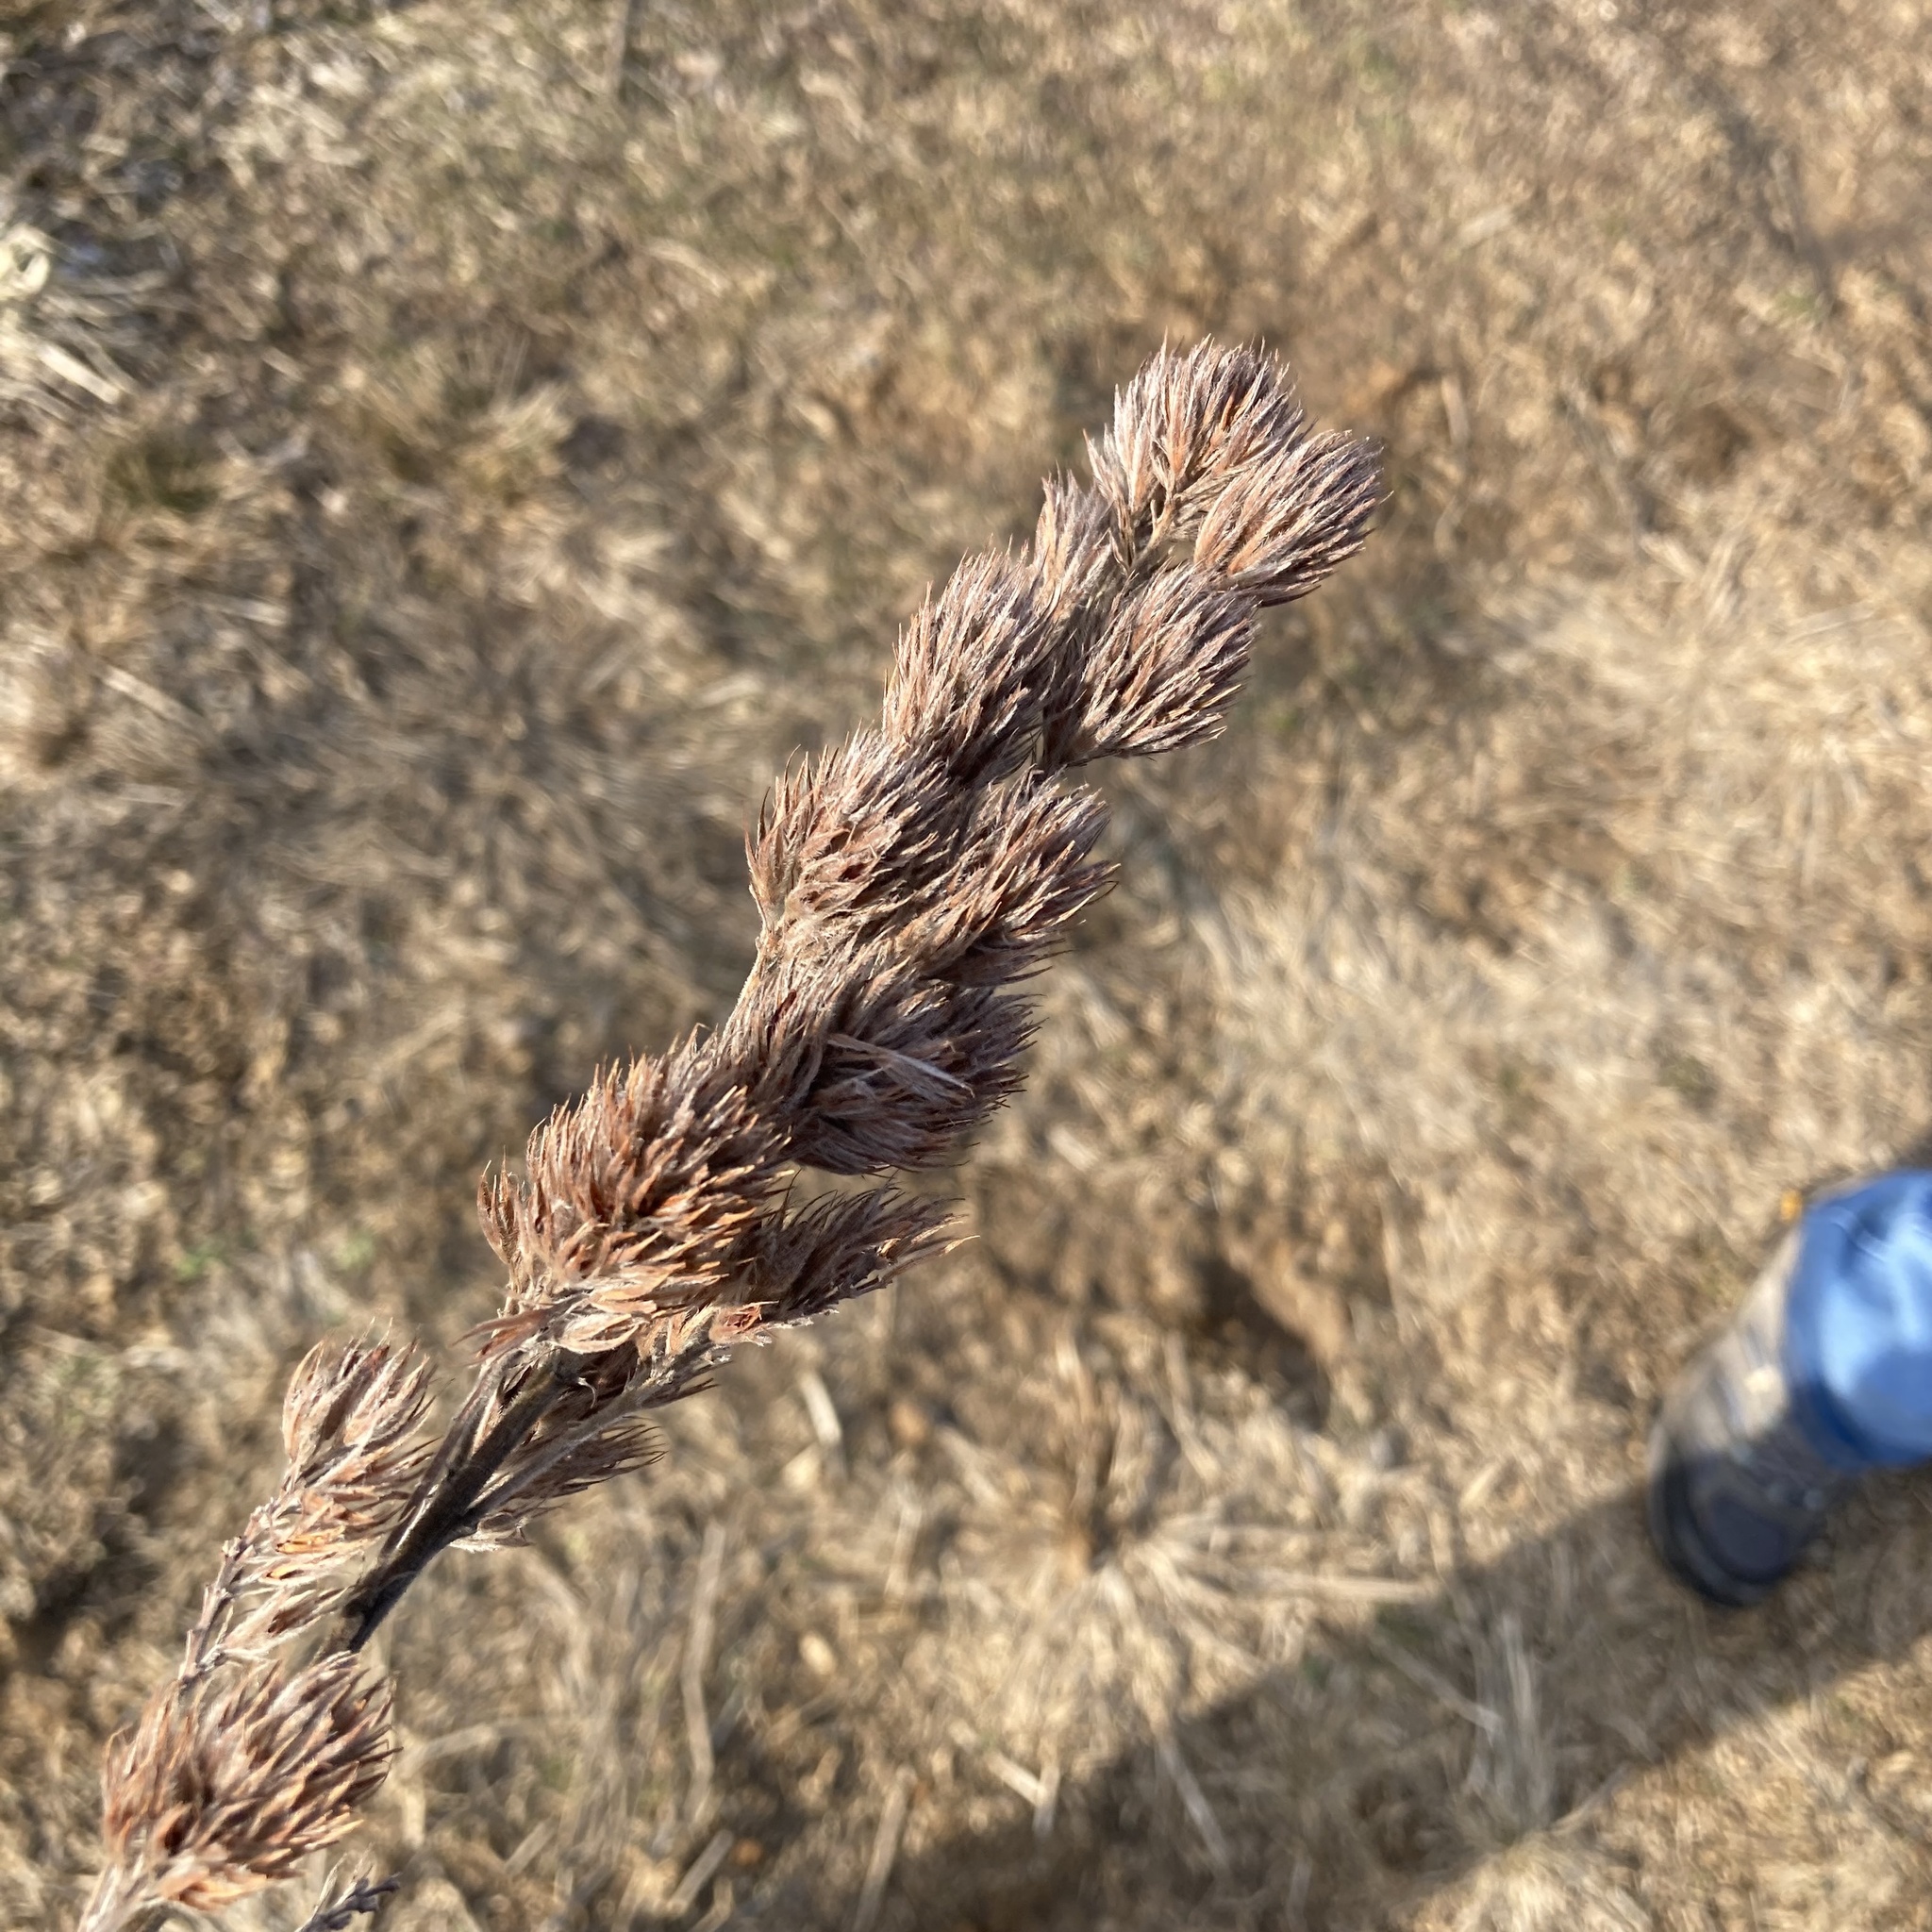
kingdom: Plantae
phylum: Tracheophyta
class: Magnoliopsida
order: Fabales
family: Fabaceae
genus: Lespedeza
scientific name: Lespedeza capitata
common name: Dusty clover
